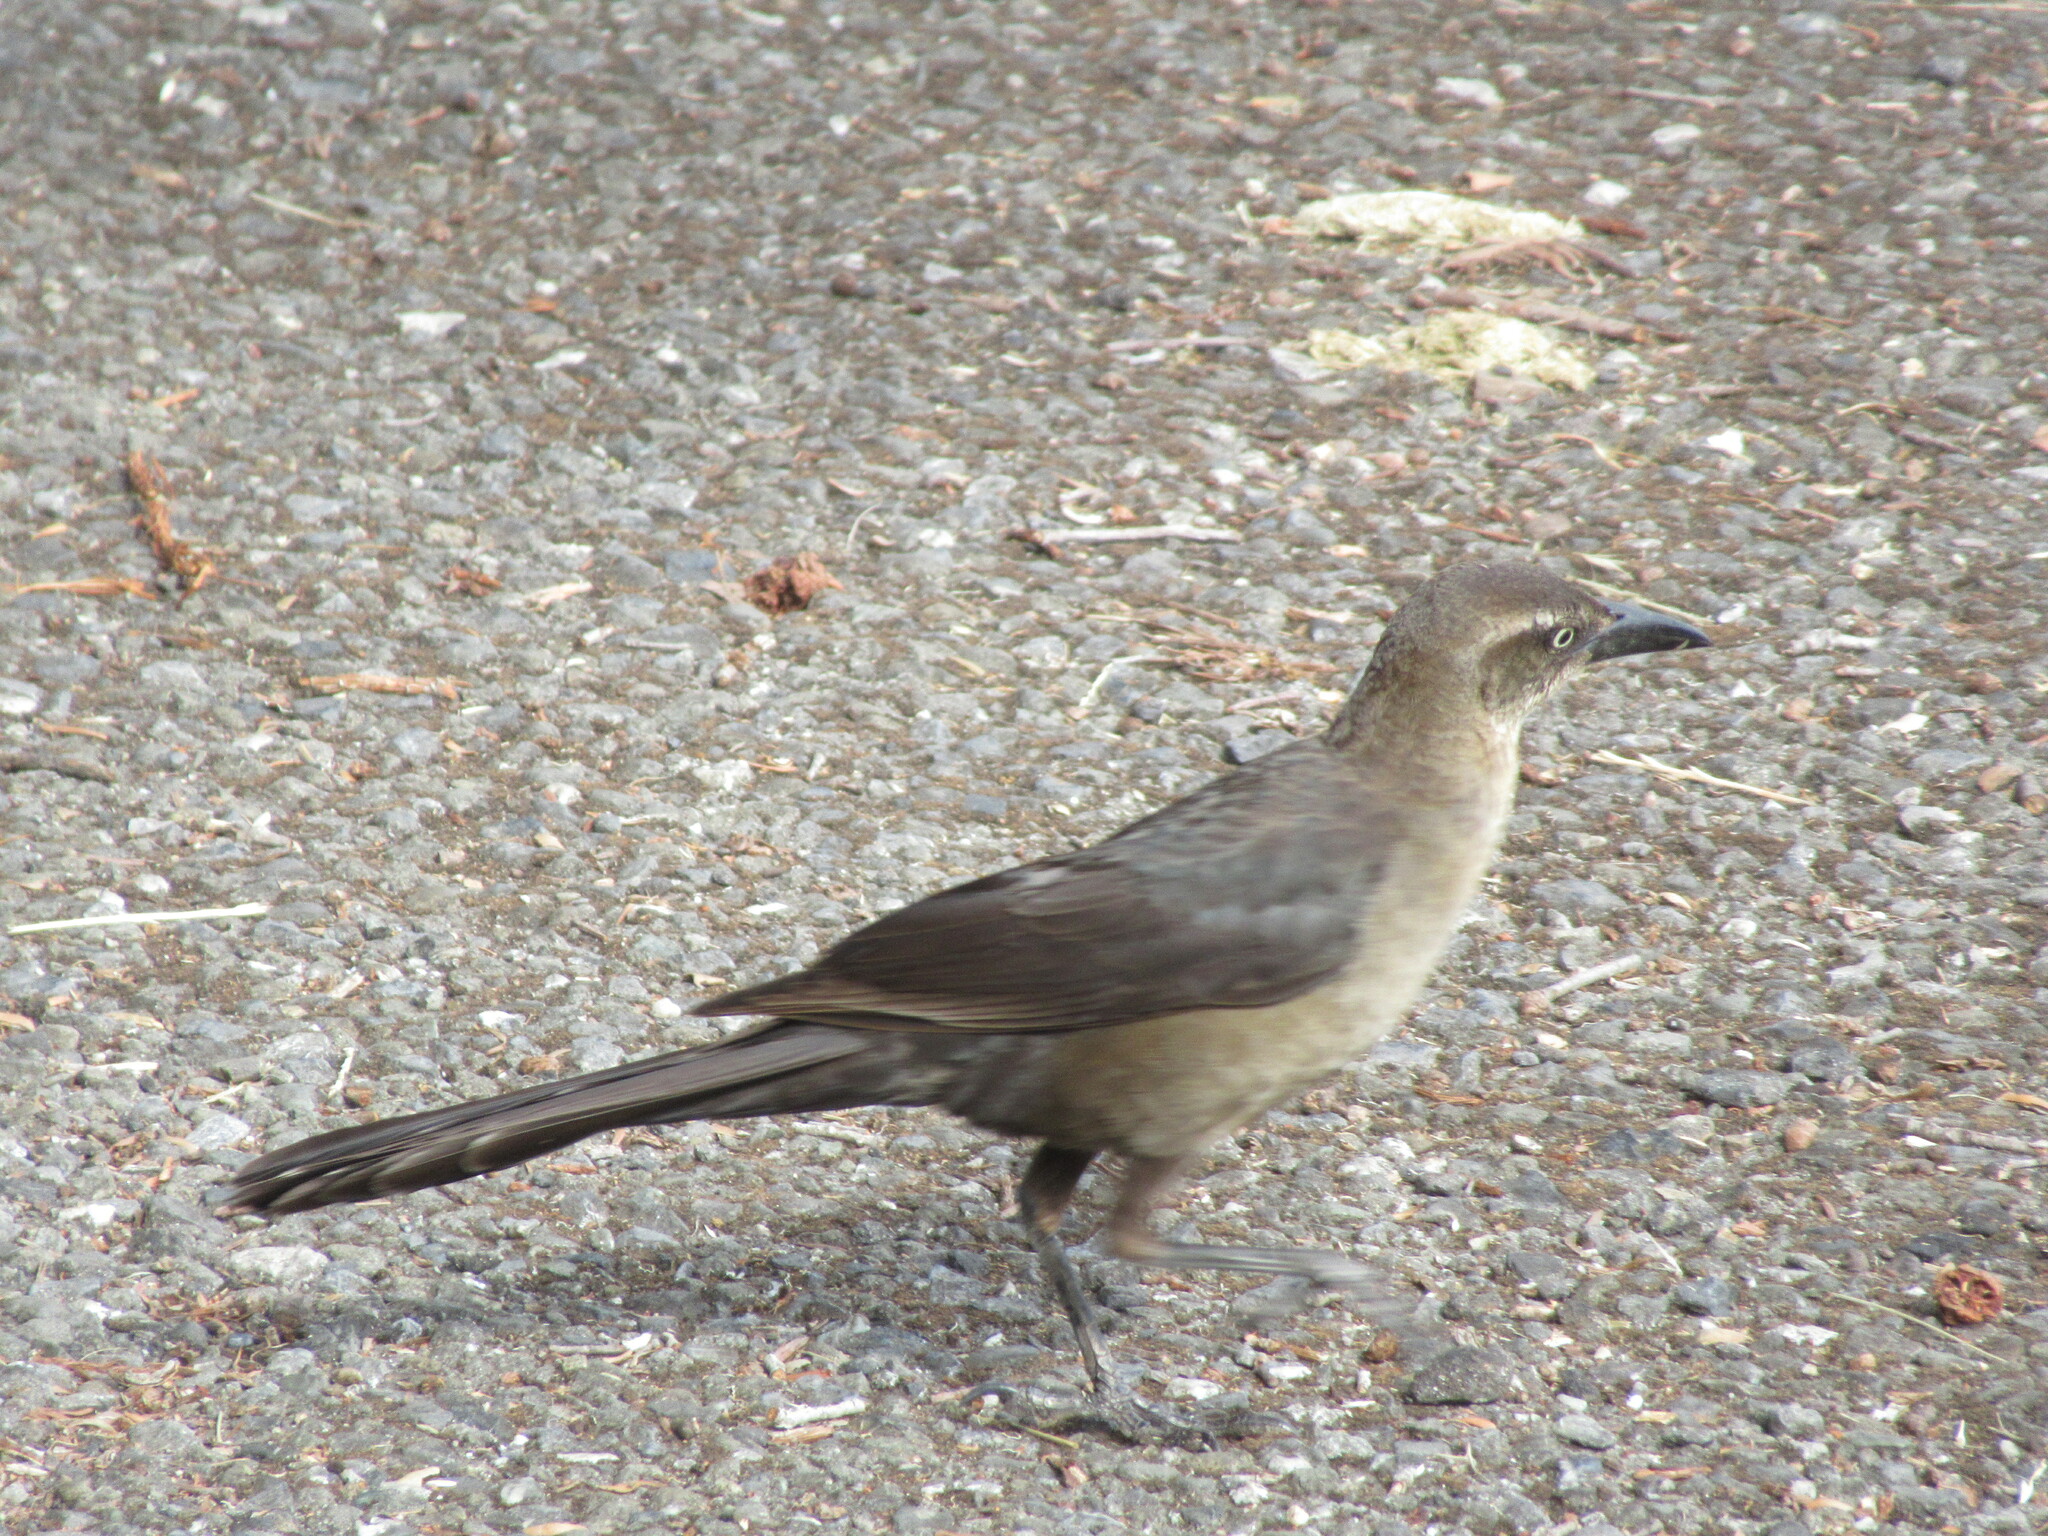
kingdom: Animalia
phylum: Chordata
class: Aves
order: Passeriformes
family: Icteridae
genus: Quiscalus
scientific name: Quiscalus mexicanus
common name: Great-tailed grackle
